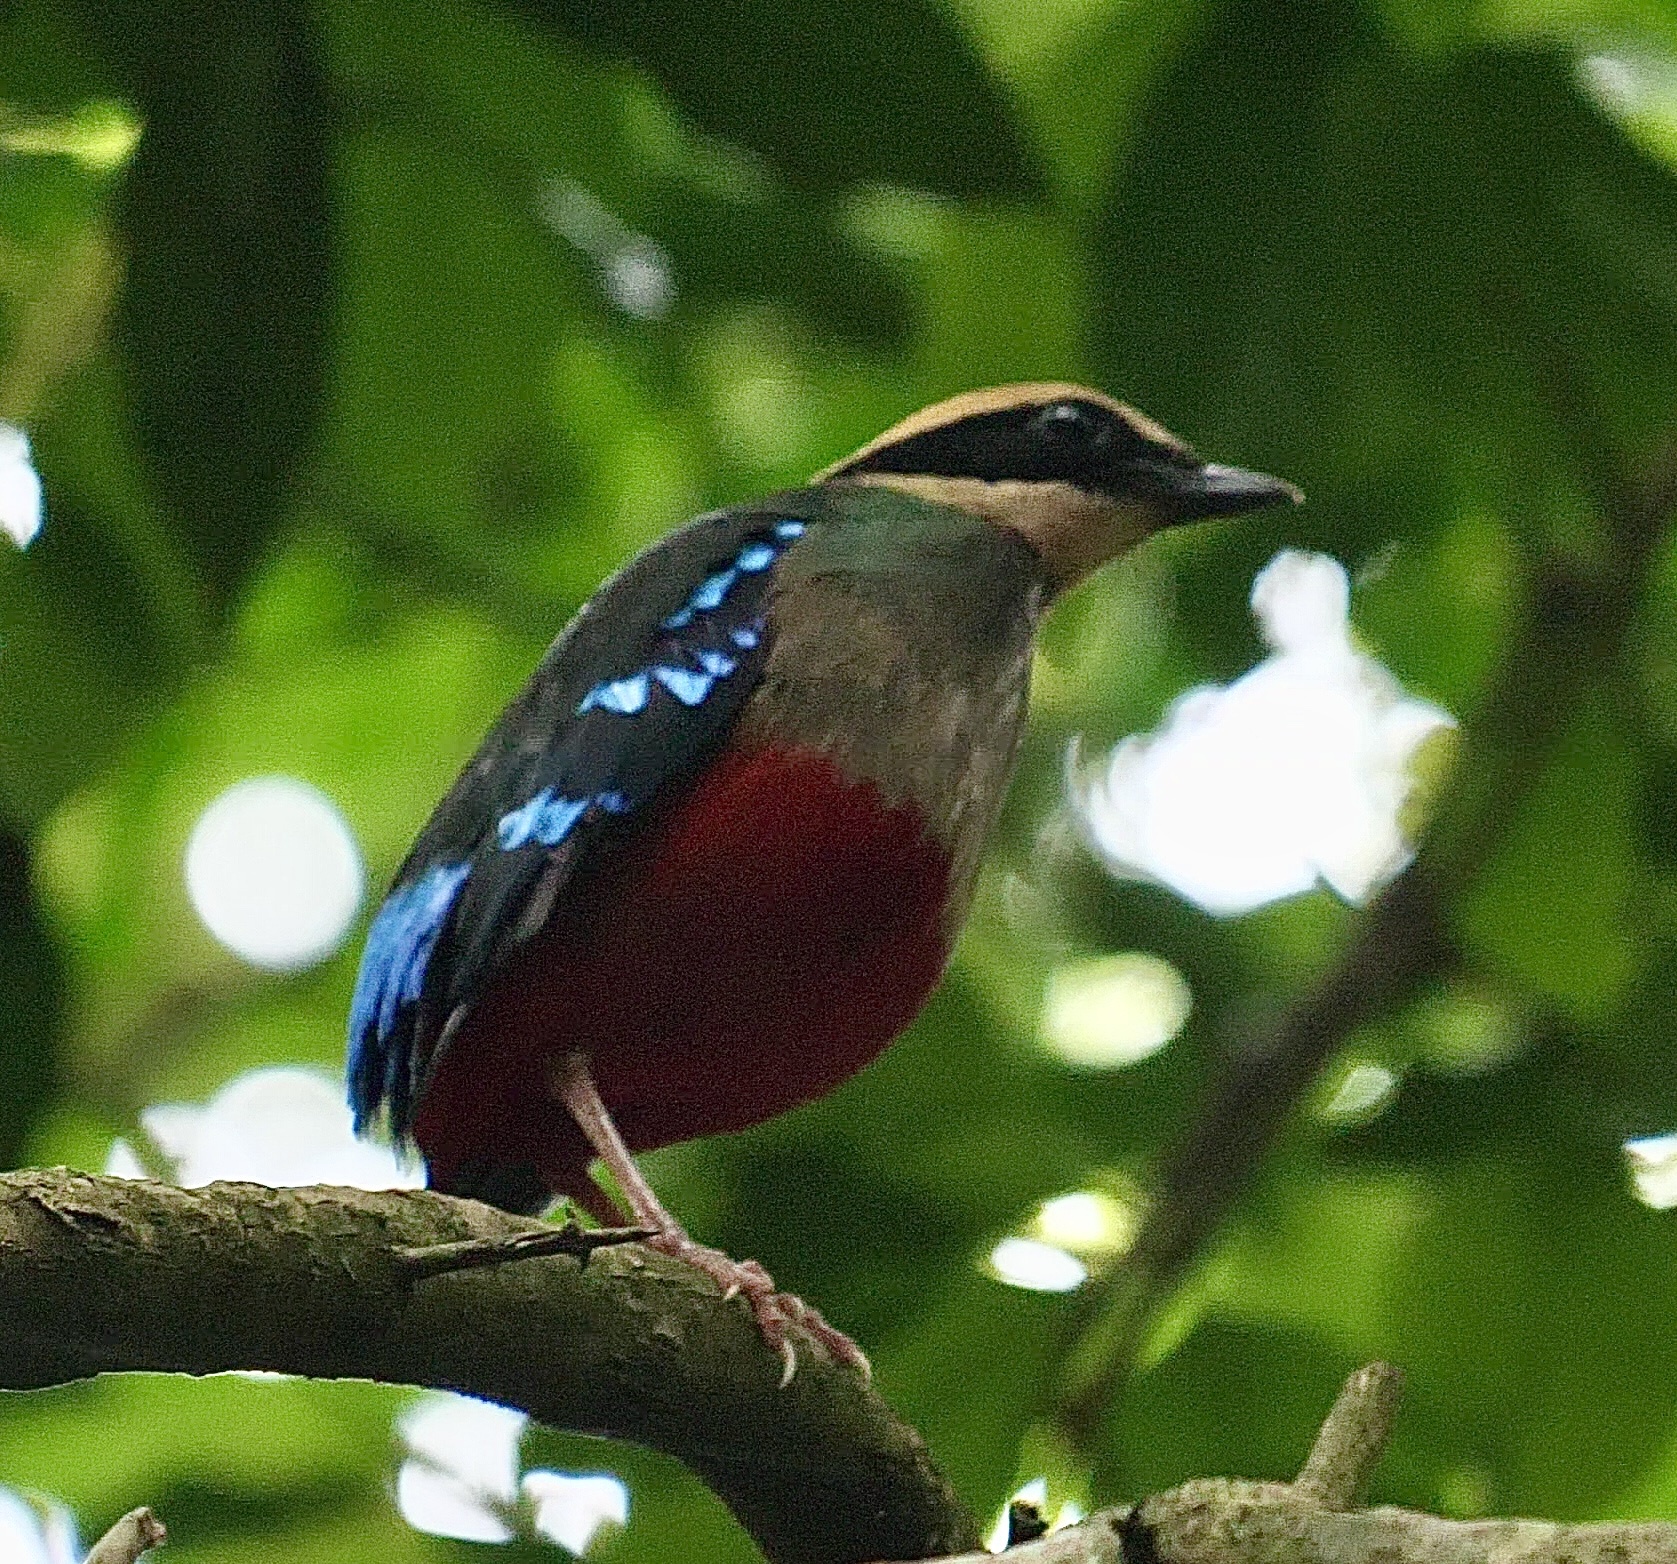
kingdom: Animalia
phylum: Chordata
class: Aves
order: Passeriformes
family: Pittidae
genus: Pitta
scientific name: Pitta reichenowi
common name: Green-breasted pitta
